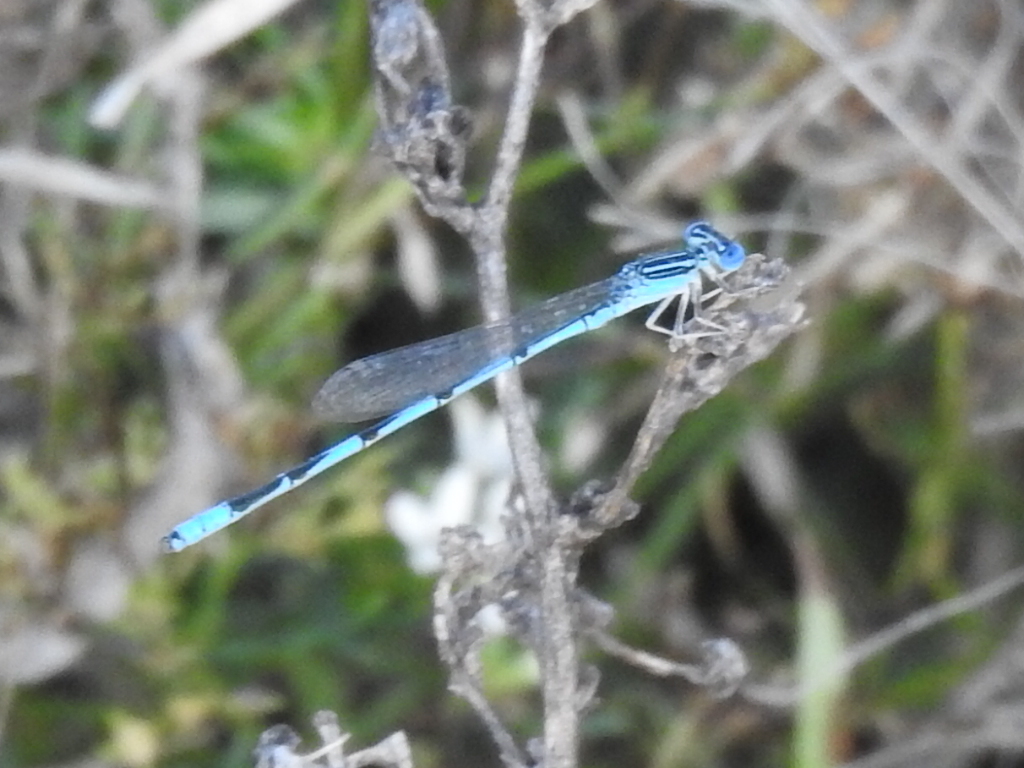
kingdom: Animalia
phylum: Arthropoda
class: Insecta
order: Odonata
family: Coenagrionidae
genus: Enallagma
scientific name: Enallagma basidens
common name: Double-striped bluet
